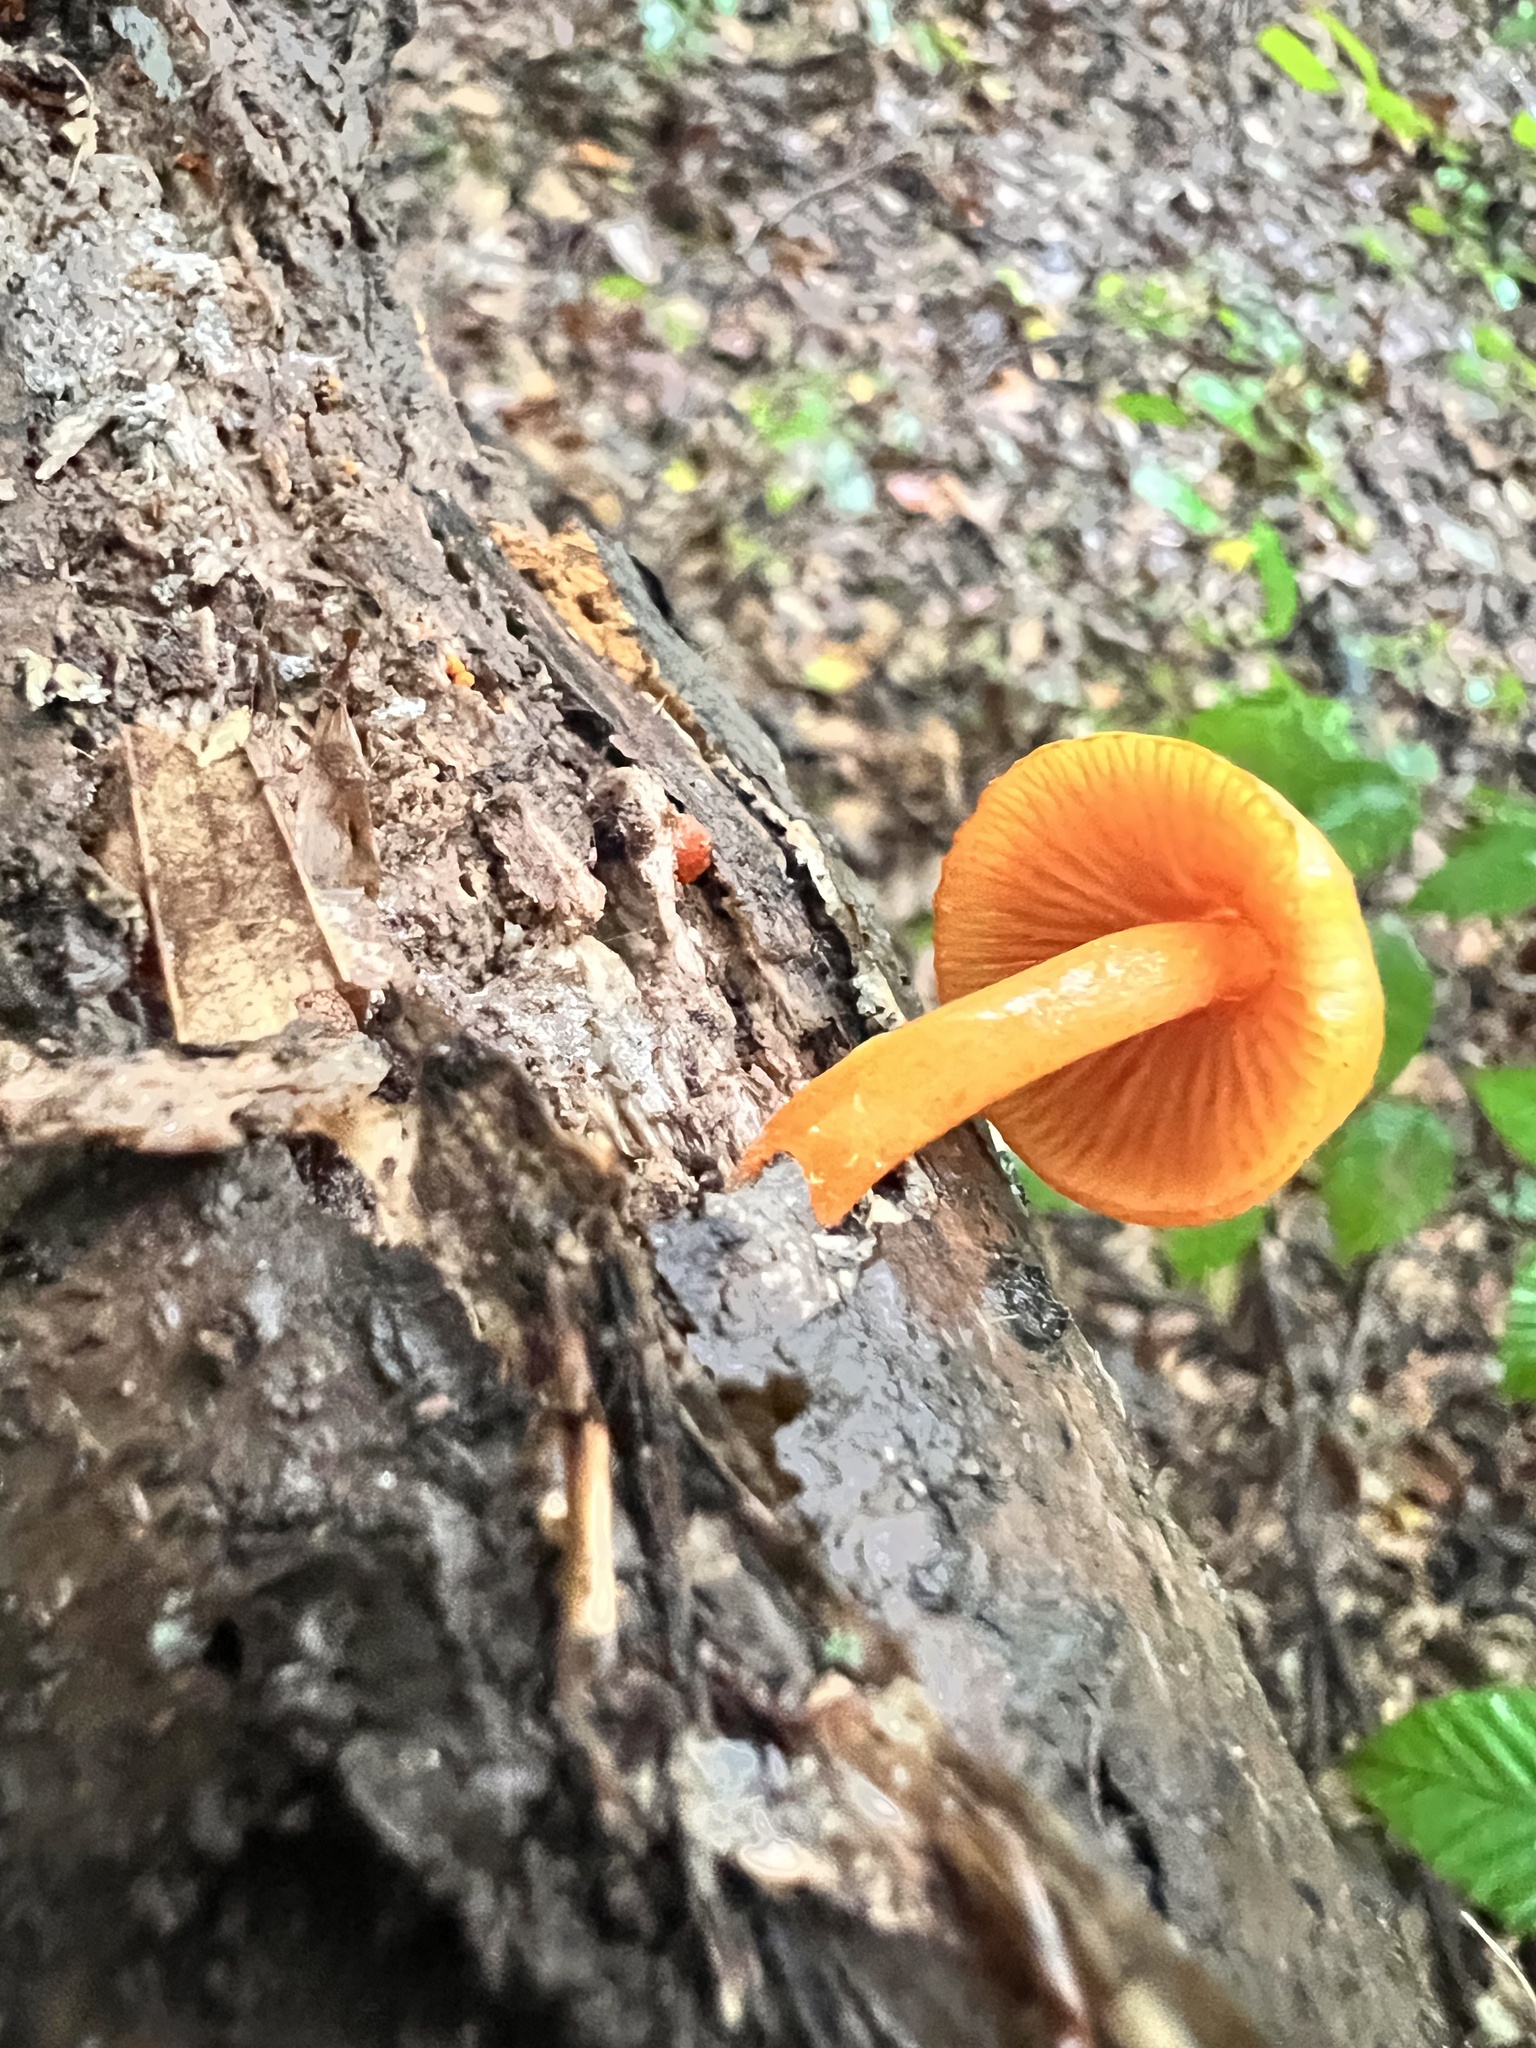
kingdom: Fungi
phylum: Basidiomycota
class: Agaricomycetes
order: Agaricales
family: Mycenaceae
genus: Mycena
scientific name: Mycena leaiana
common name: Orange mycena
